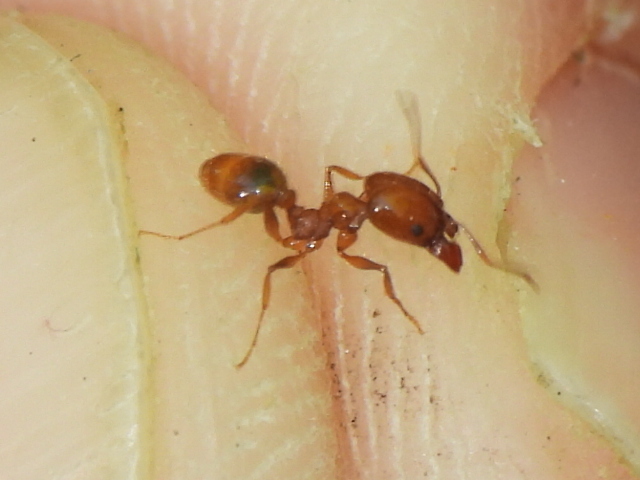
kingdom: Animalia
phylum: Arthropoda
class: Insecta
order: Hymenoptera
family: Formicidae
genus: Pheidole
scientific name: Pheidole dentata
